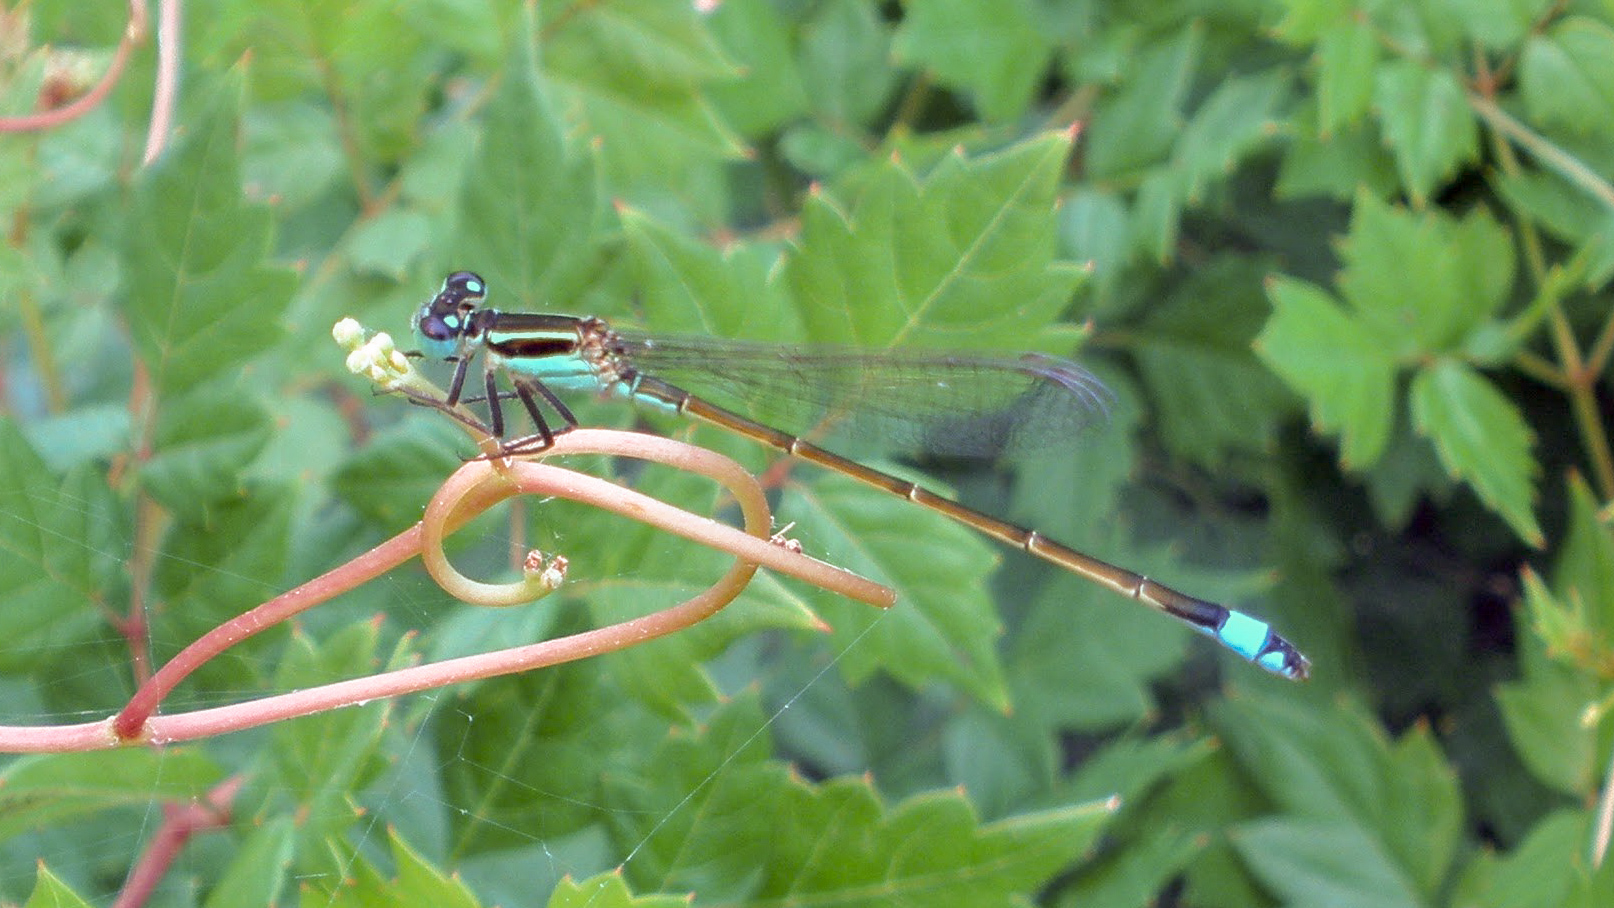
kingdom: Animalia
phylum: Arthropoda
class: Insecta
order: Odonata
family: Coenagrionidae
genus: Ischnura
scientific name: Ischnura ramburii
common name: Rambur's forktail
